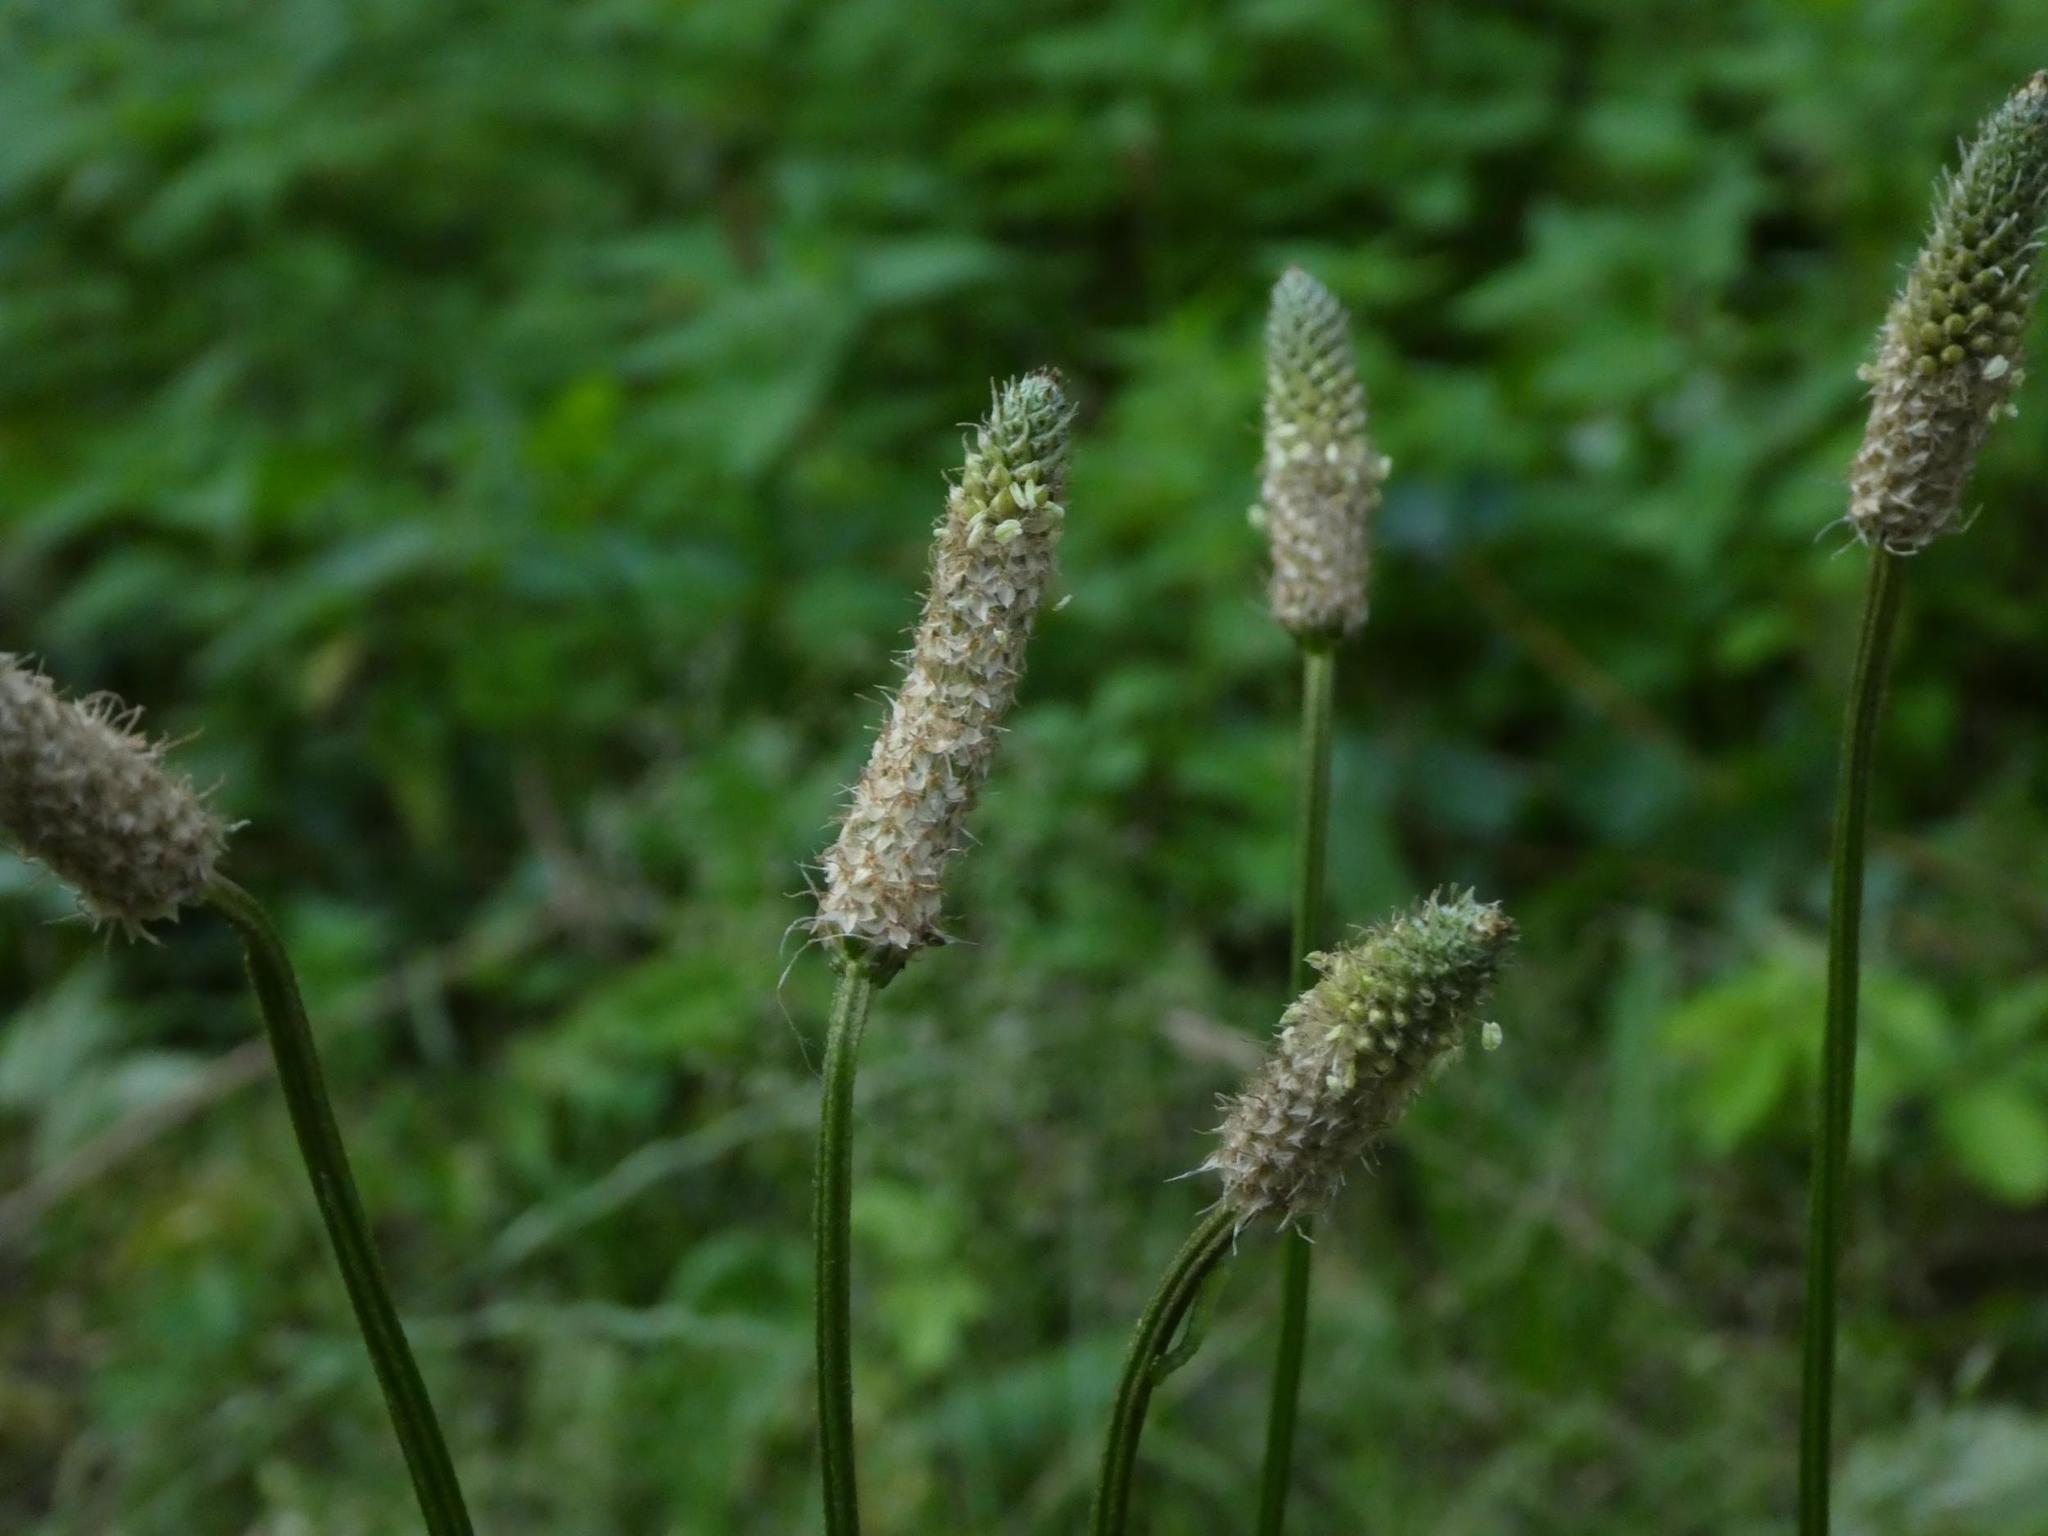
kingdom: Plantae
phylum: Tracheophyta
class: Magnoliopsida
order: Lamiales
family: Plantaginaceae
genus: Plantago
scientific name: Plantago lanceolata
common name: Ribwort plantain
